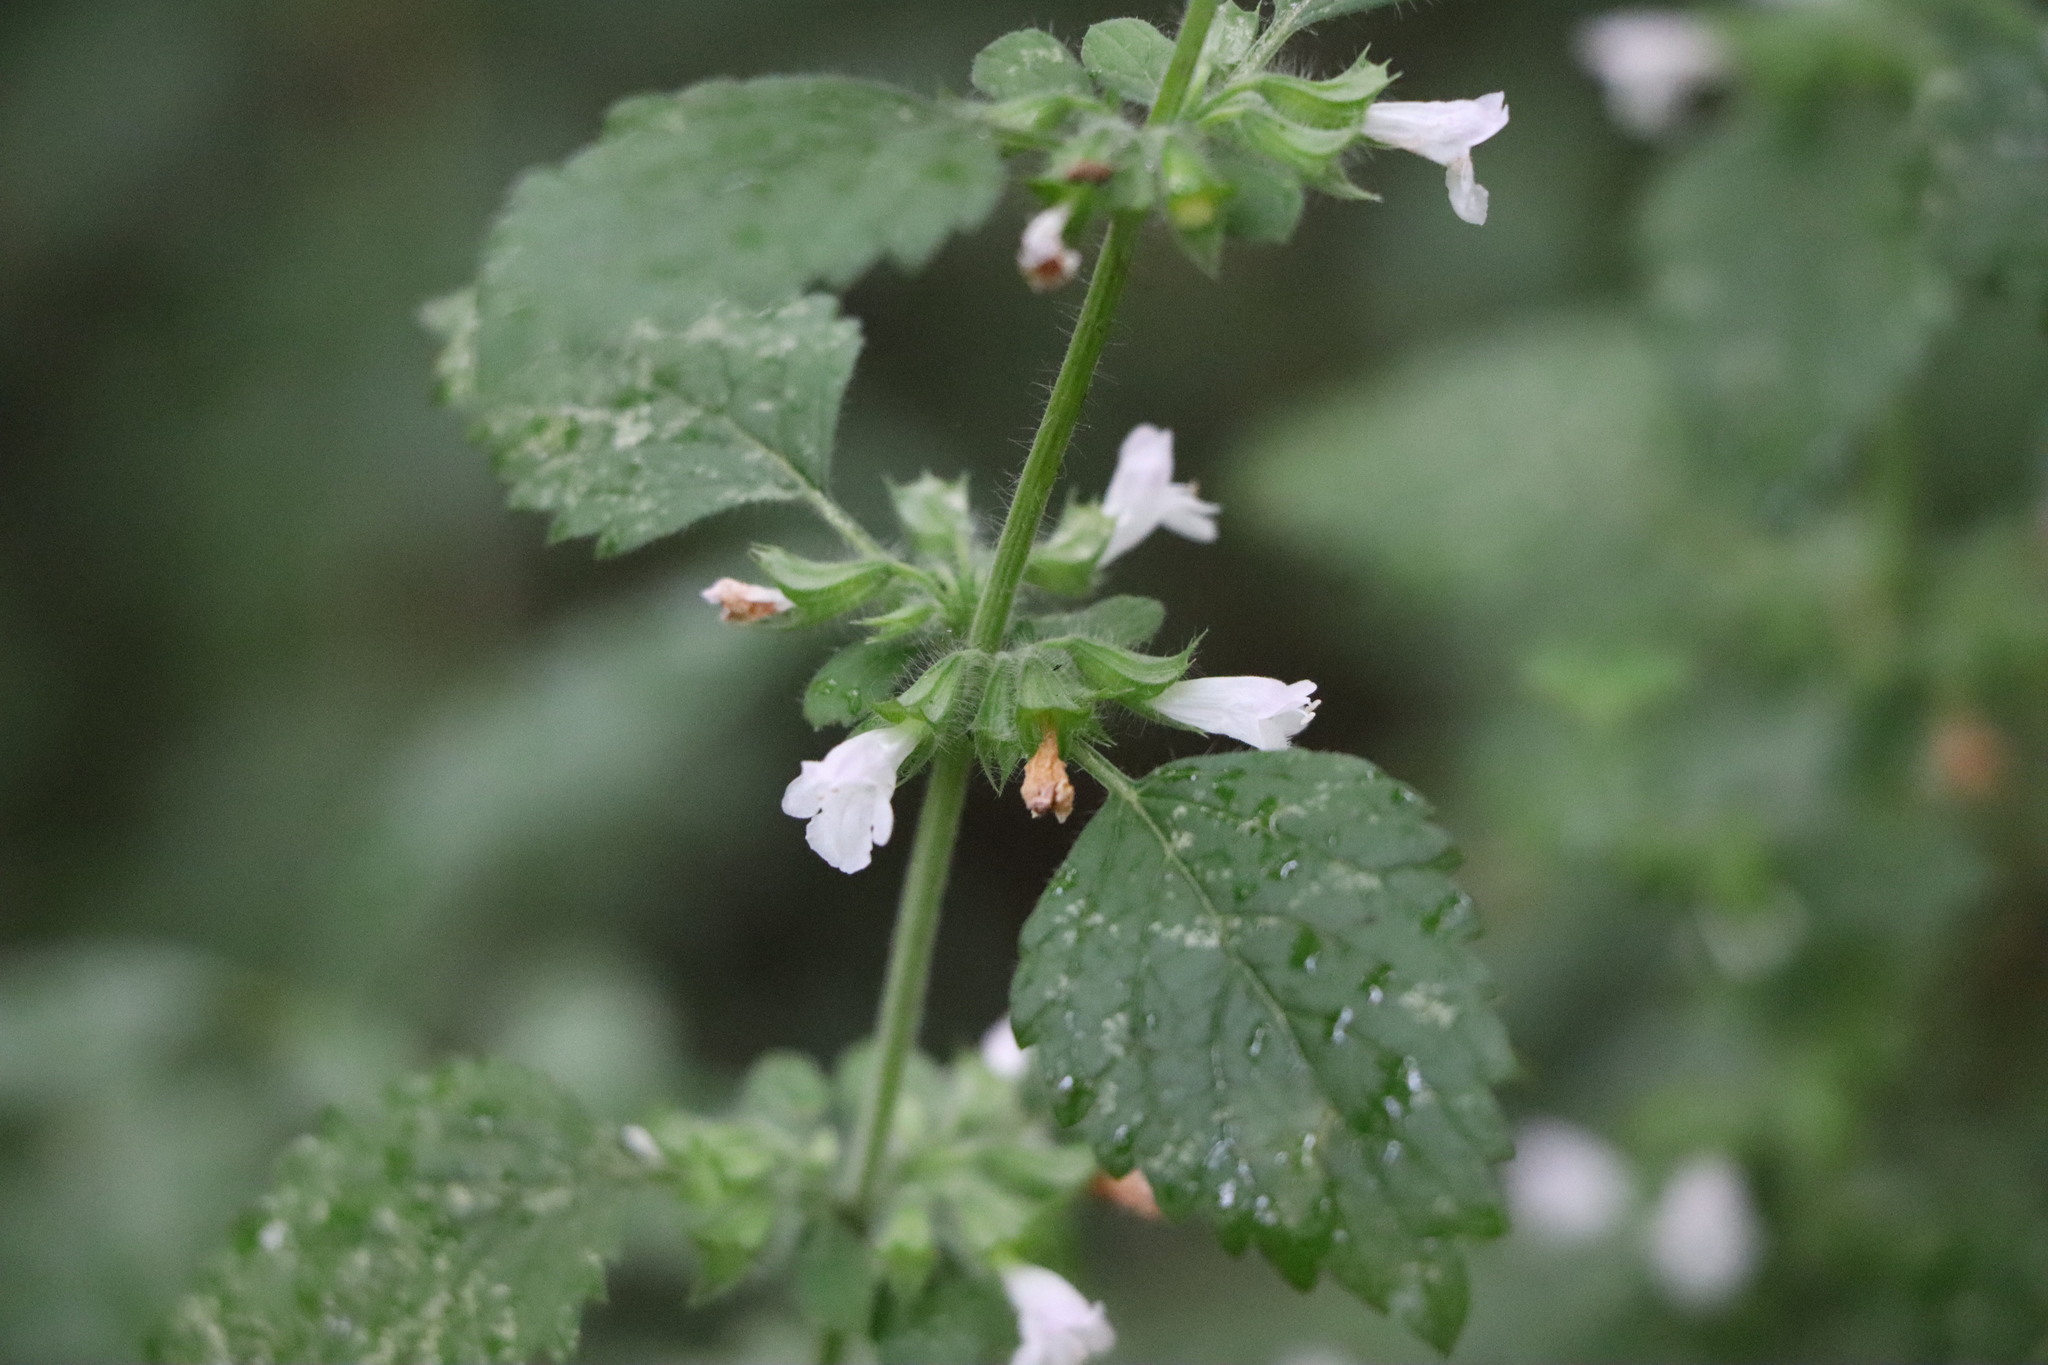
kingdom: Plantae
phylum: Tracheophyta
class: Magnoliopsida
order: Lamiales
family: Lamiaceae
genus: Melissa
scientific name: Melissa officinalis
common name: Balm
